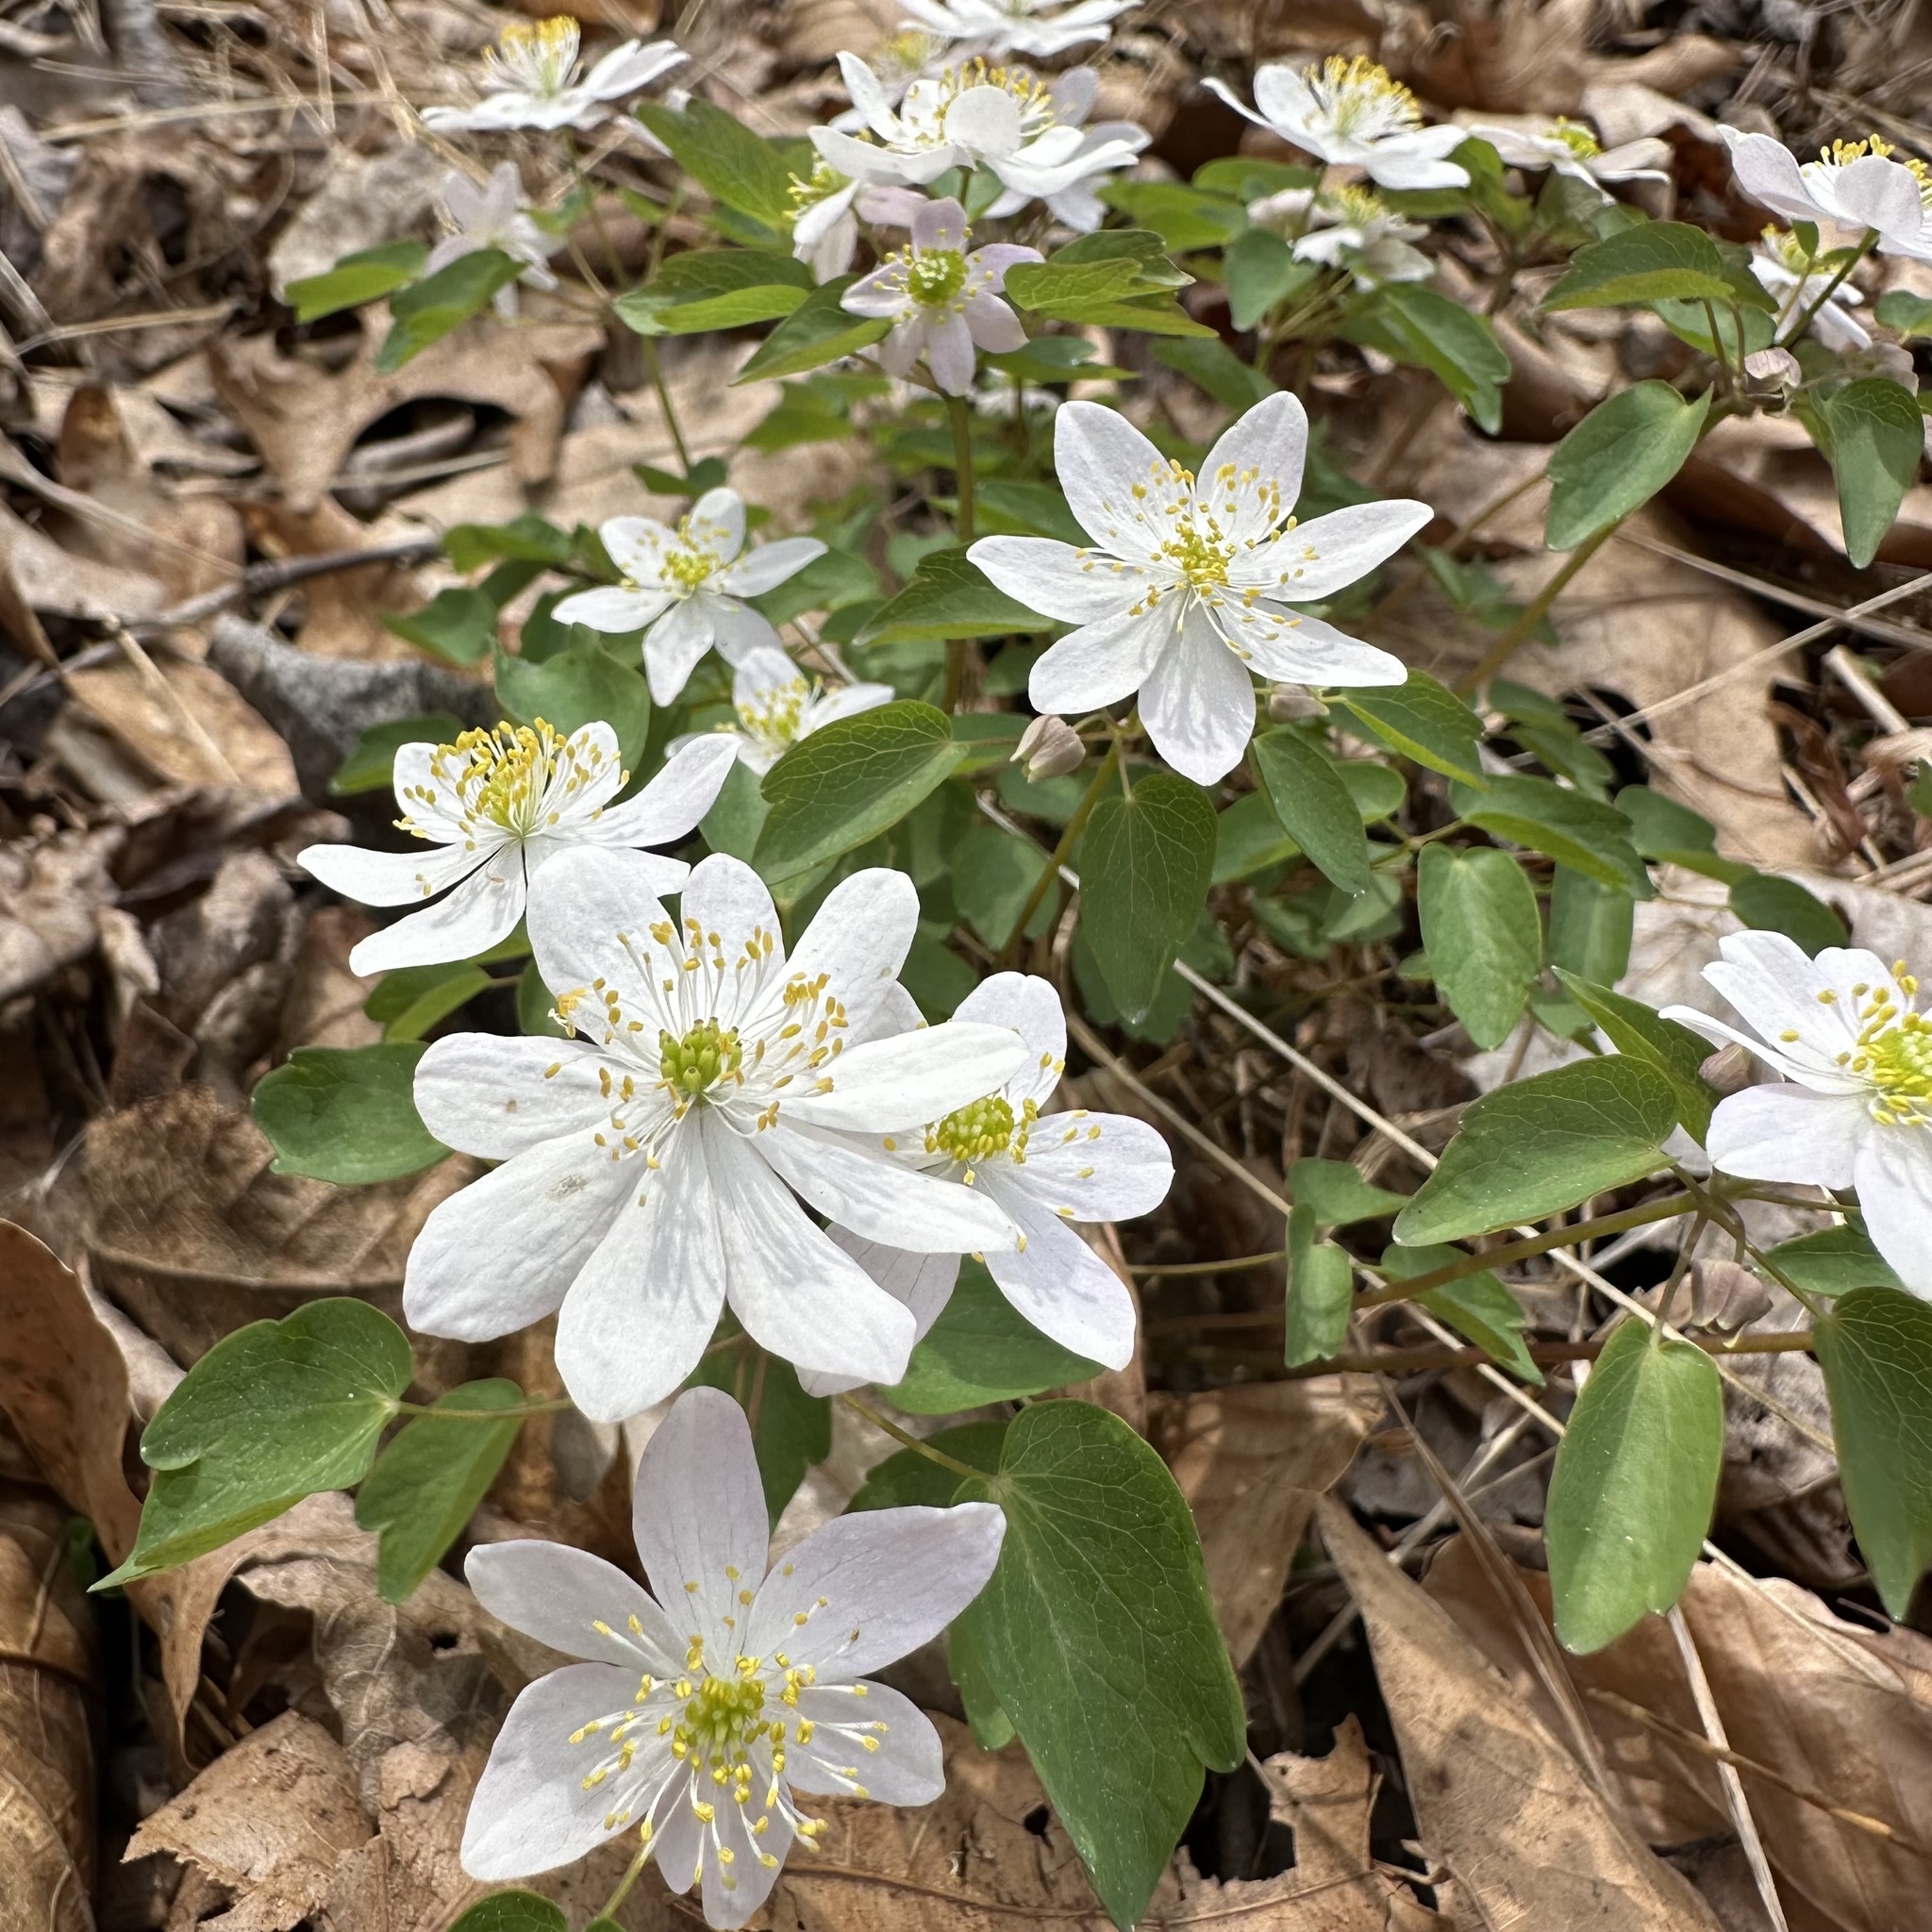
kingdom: Plantae
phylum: Tracheophyta
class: Magnoliopsida
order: Ranunculales
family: Ranunculaceae
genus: Thalictrum
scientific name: Thalictrum thalictroides
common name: Rue-anemone
